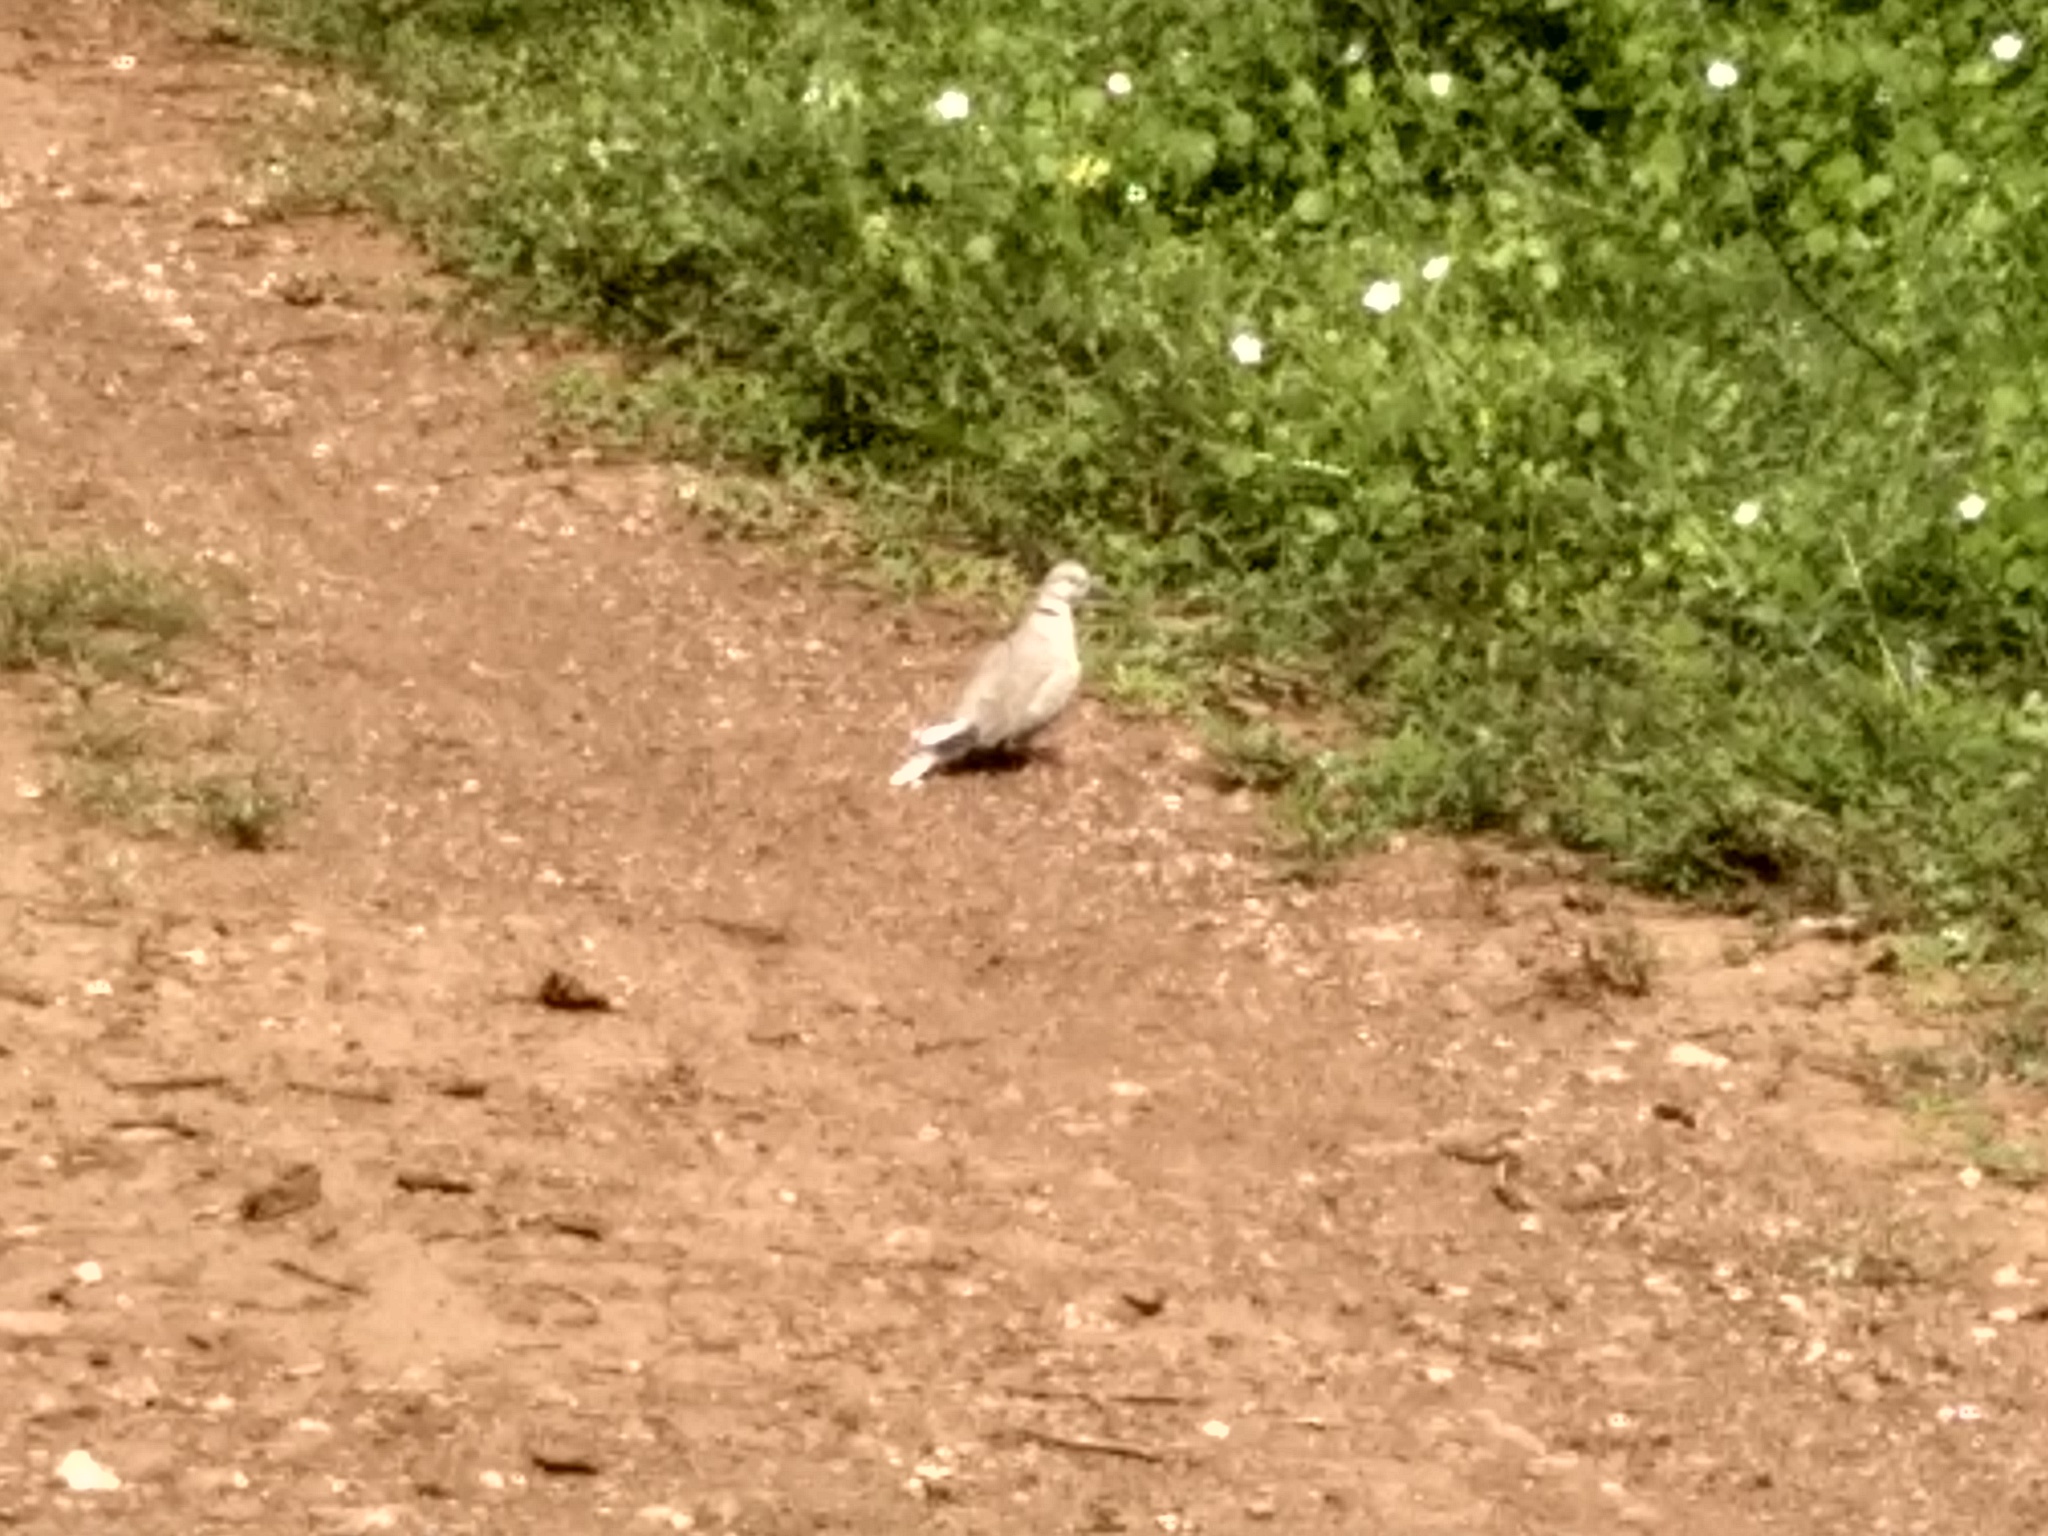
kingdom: Animalia
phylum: Chordata
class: Aves
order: Columbiformes
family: Columbidae
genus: Streptopelia
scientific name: Streptopelia decaocto
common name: Eurasian collared dove
